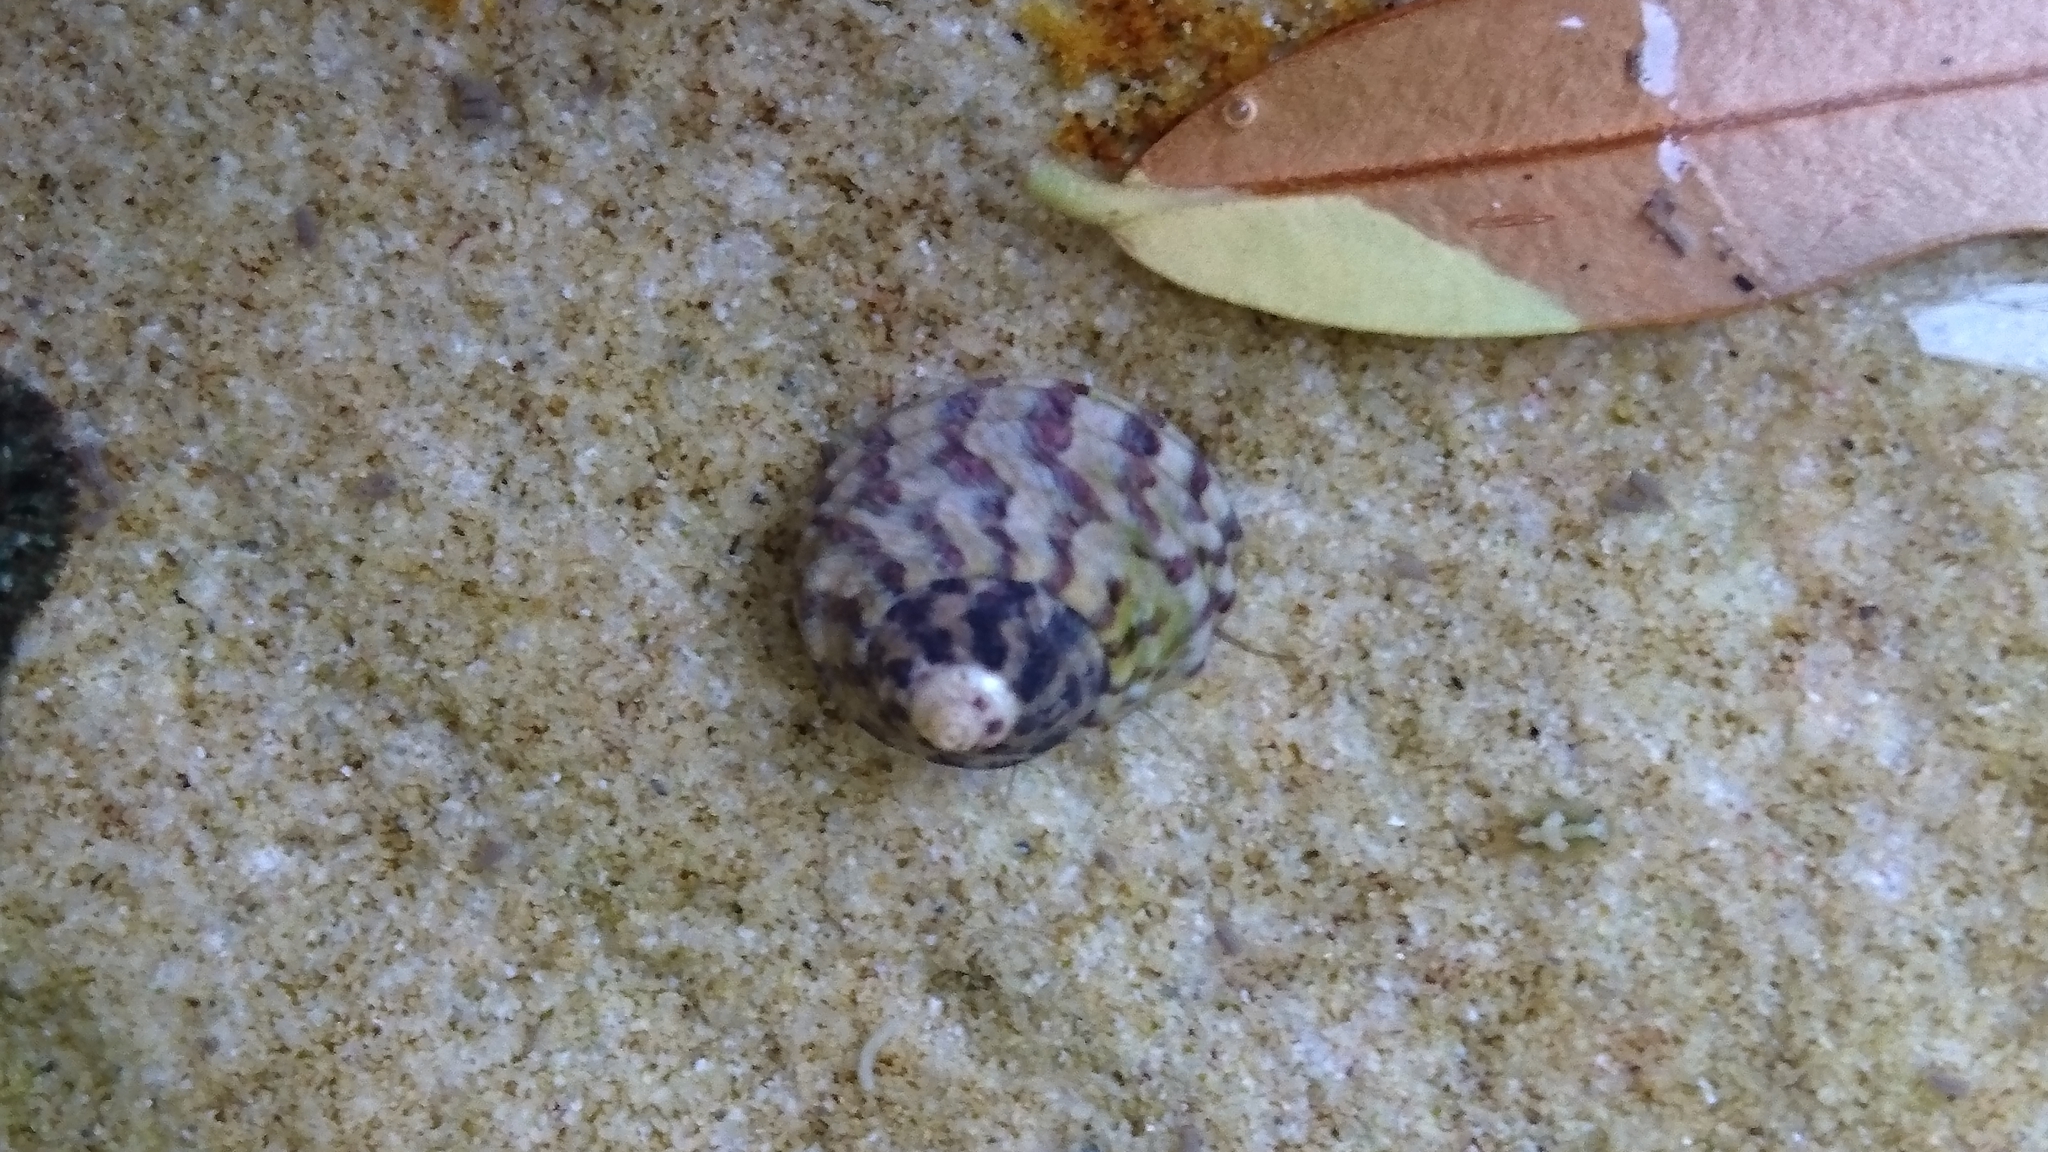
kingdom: Animalia
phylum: Mollusca
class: Gastropoda
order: Trochida
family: Trochidae
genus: Austrocochlea
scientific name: Austrocochlea porcata
